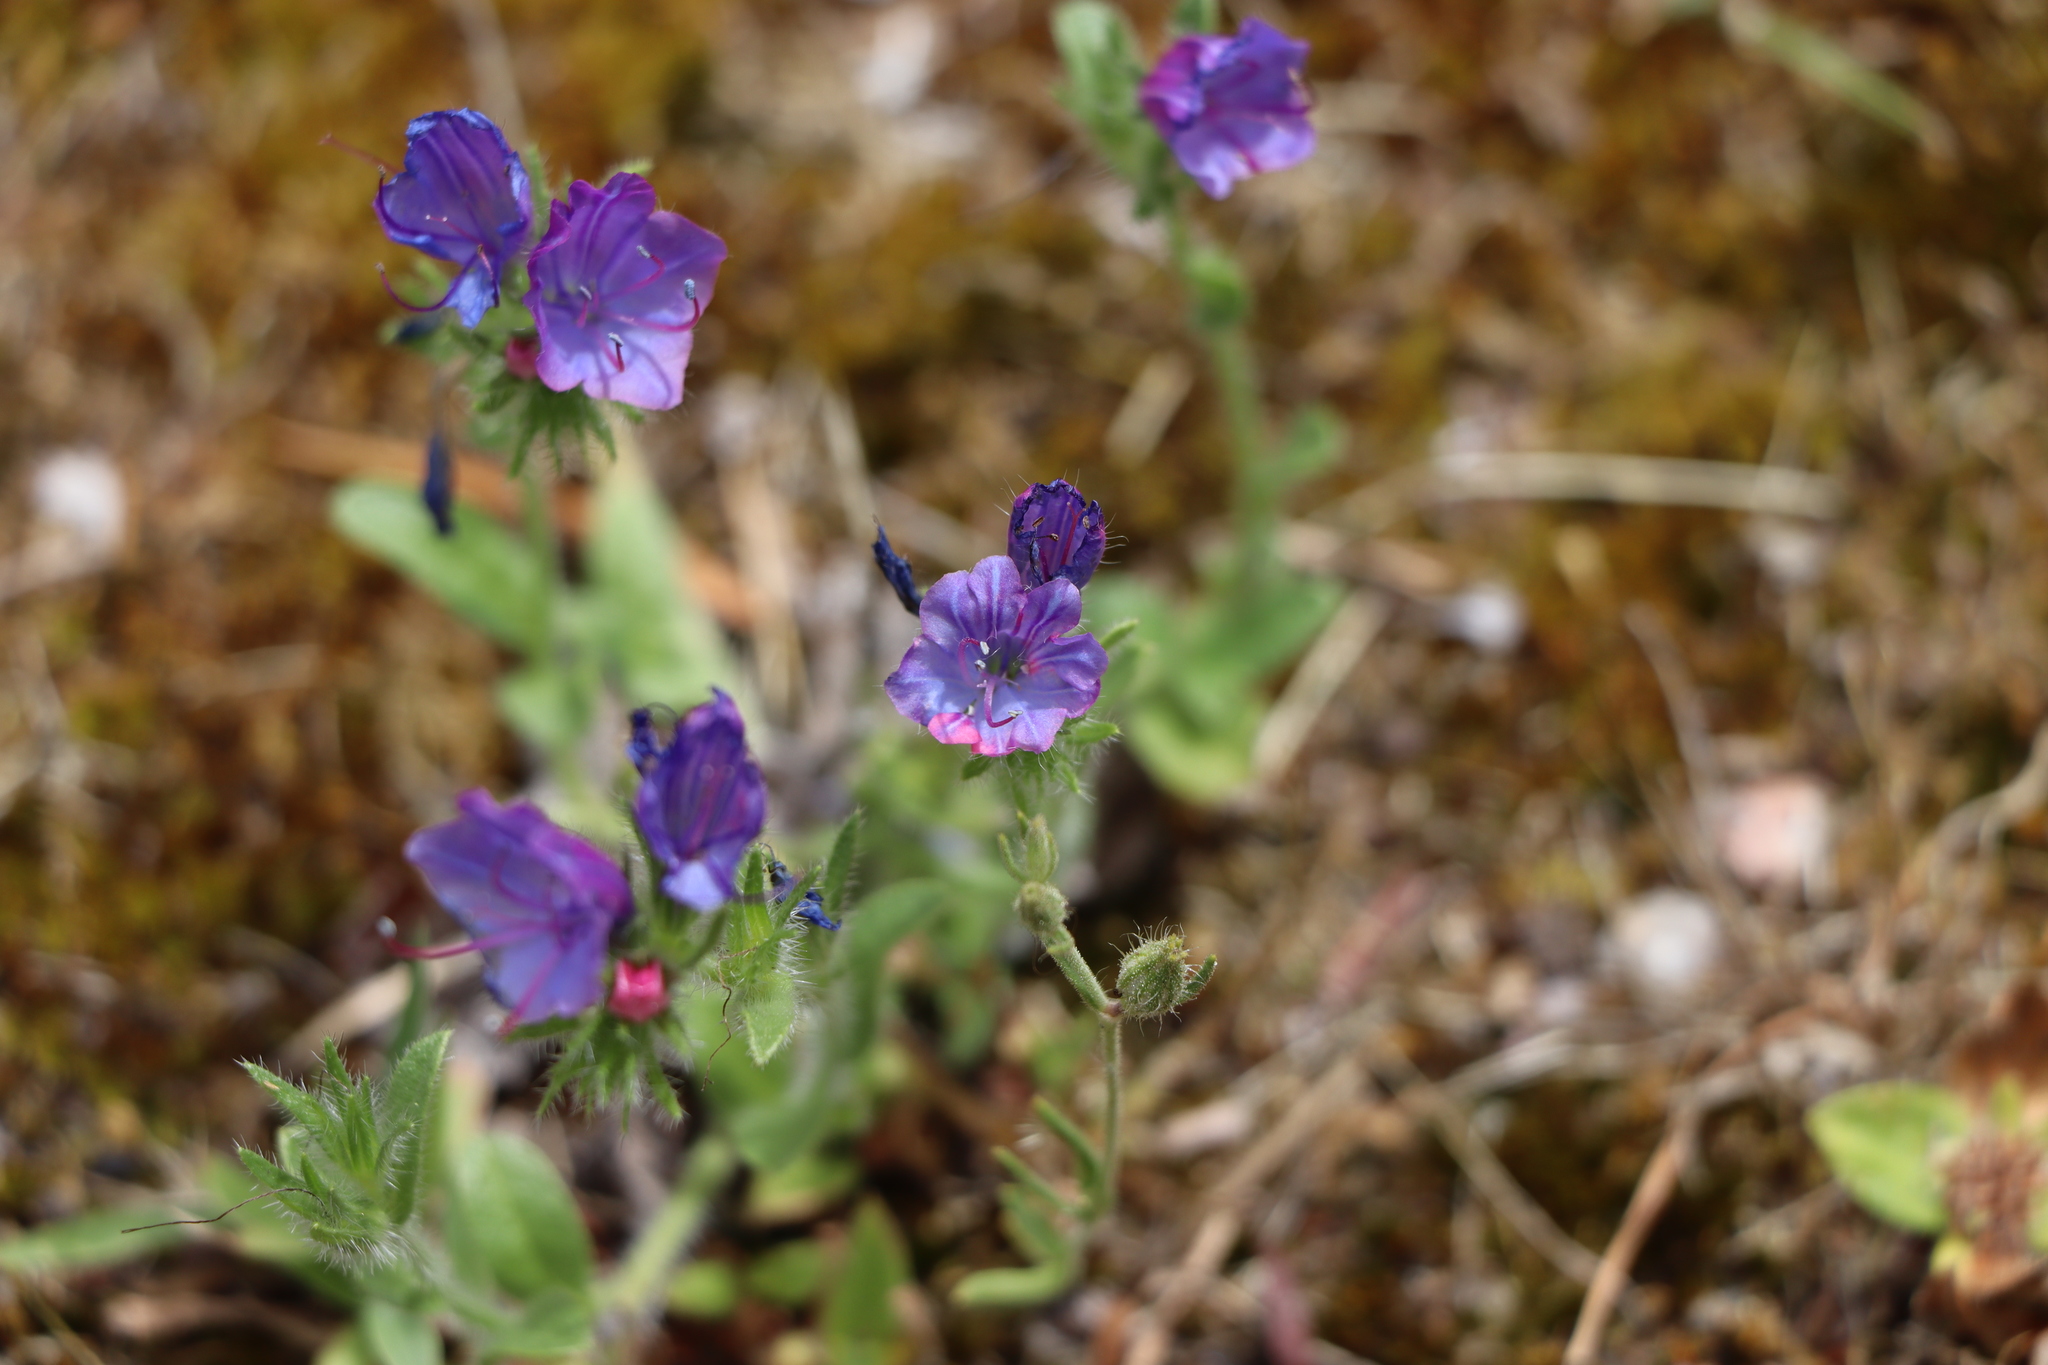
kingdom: Plantae
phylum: Tracheophyta
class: Magnoliopsida
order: Boraginales
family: Boraginaceae
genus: Echium
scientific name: Echium plantagineum
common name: Purple viper's-bugloss
